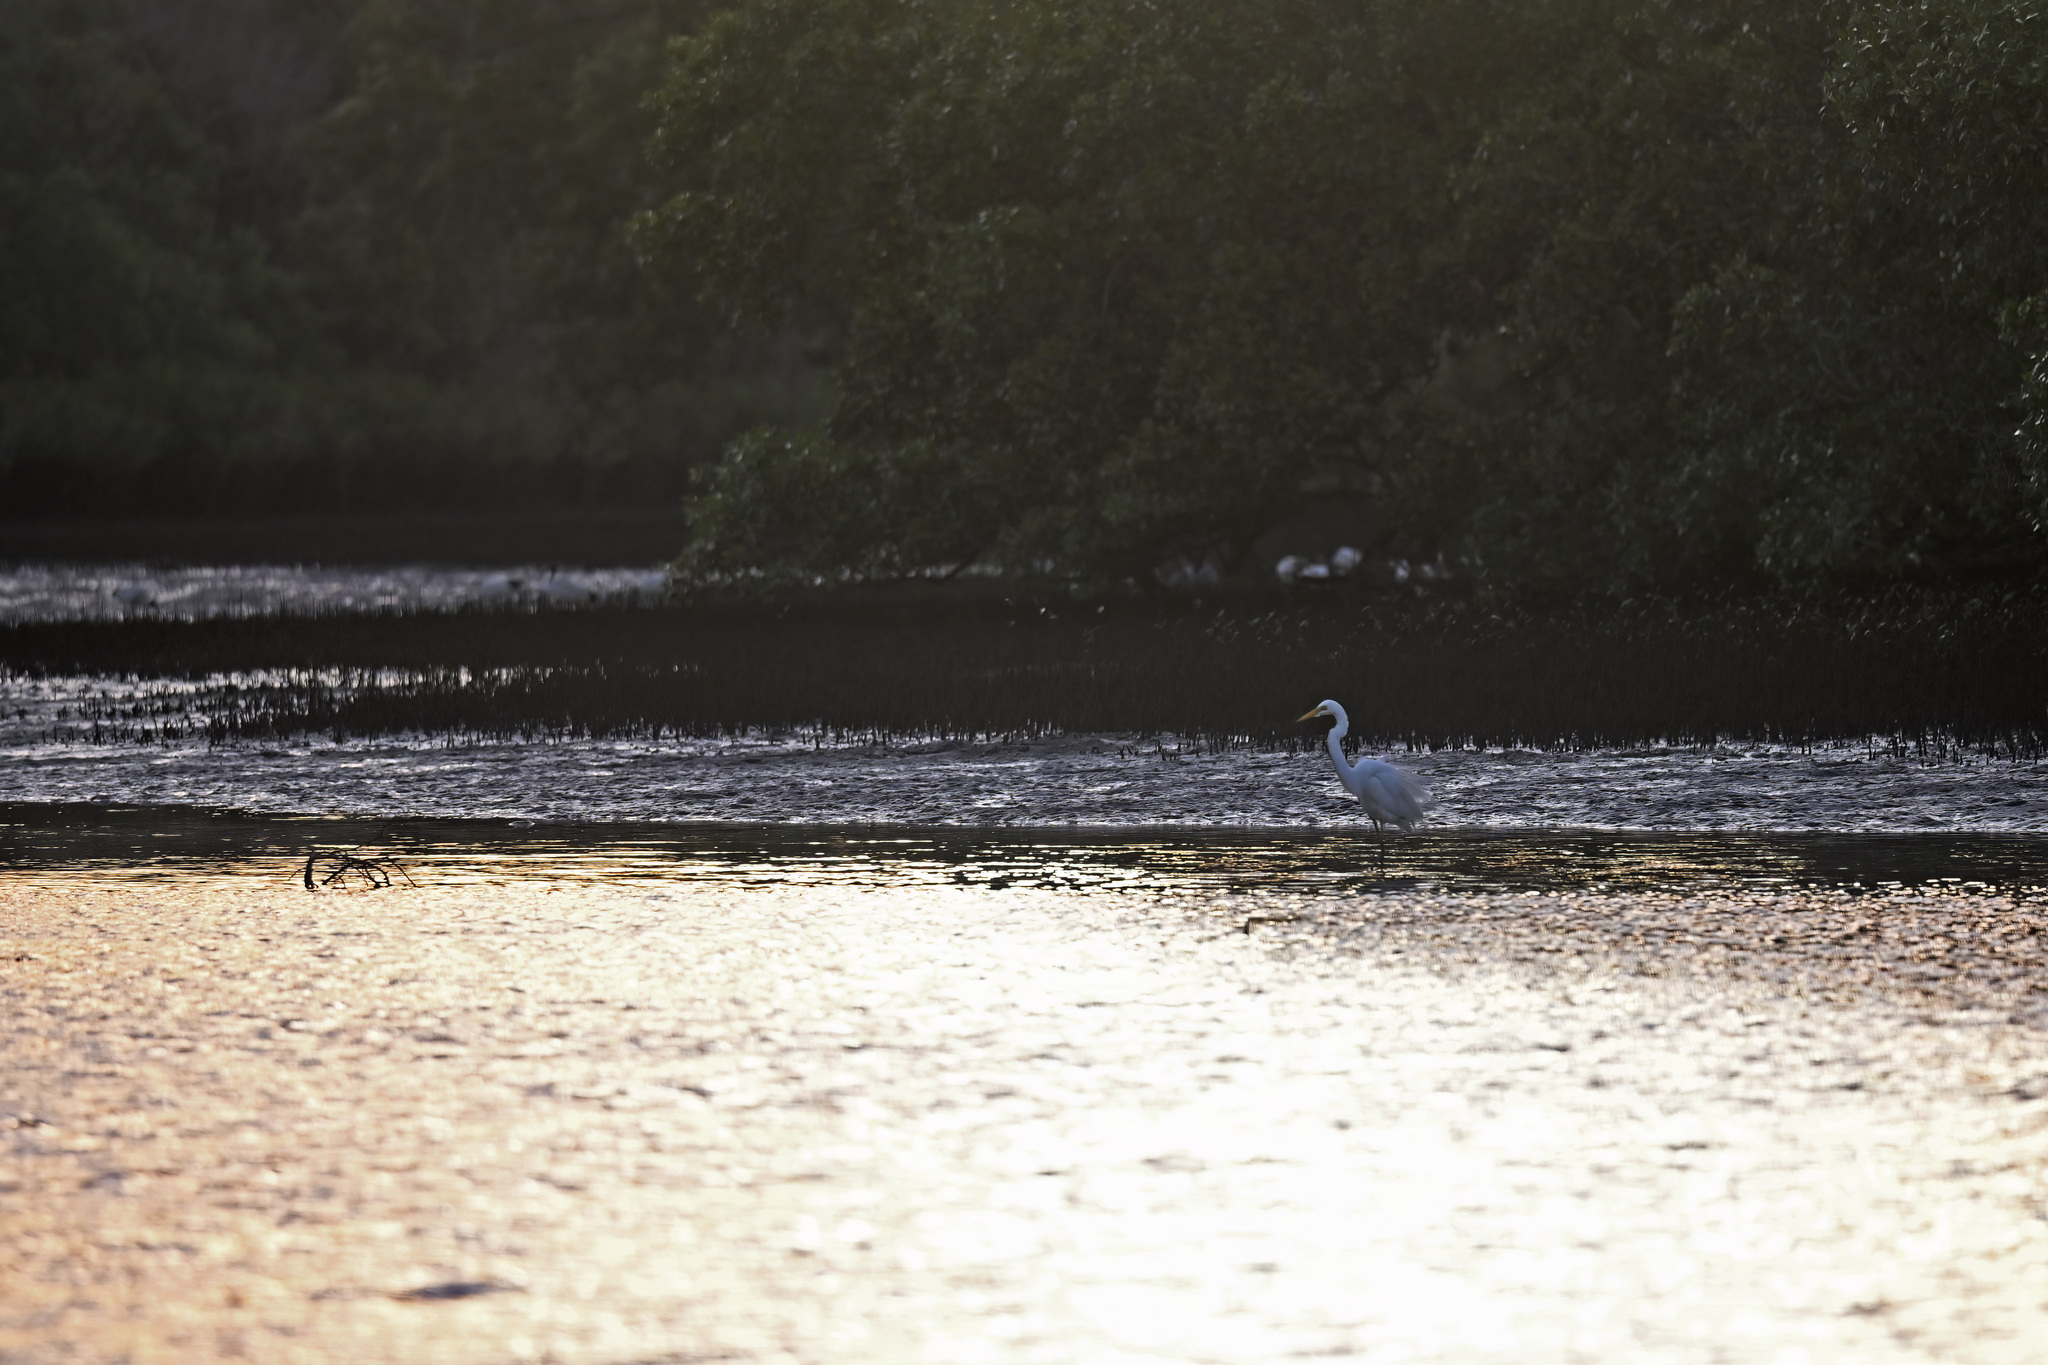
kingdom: Animalia
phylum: Chordata
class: Aves
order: Pelecaniformes
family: Ardeidae
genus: Ardea
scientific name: Ardea alba
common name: Great egret
